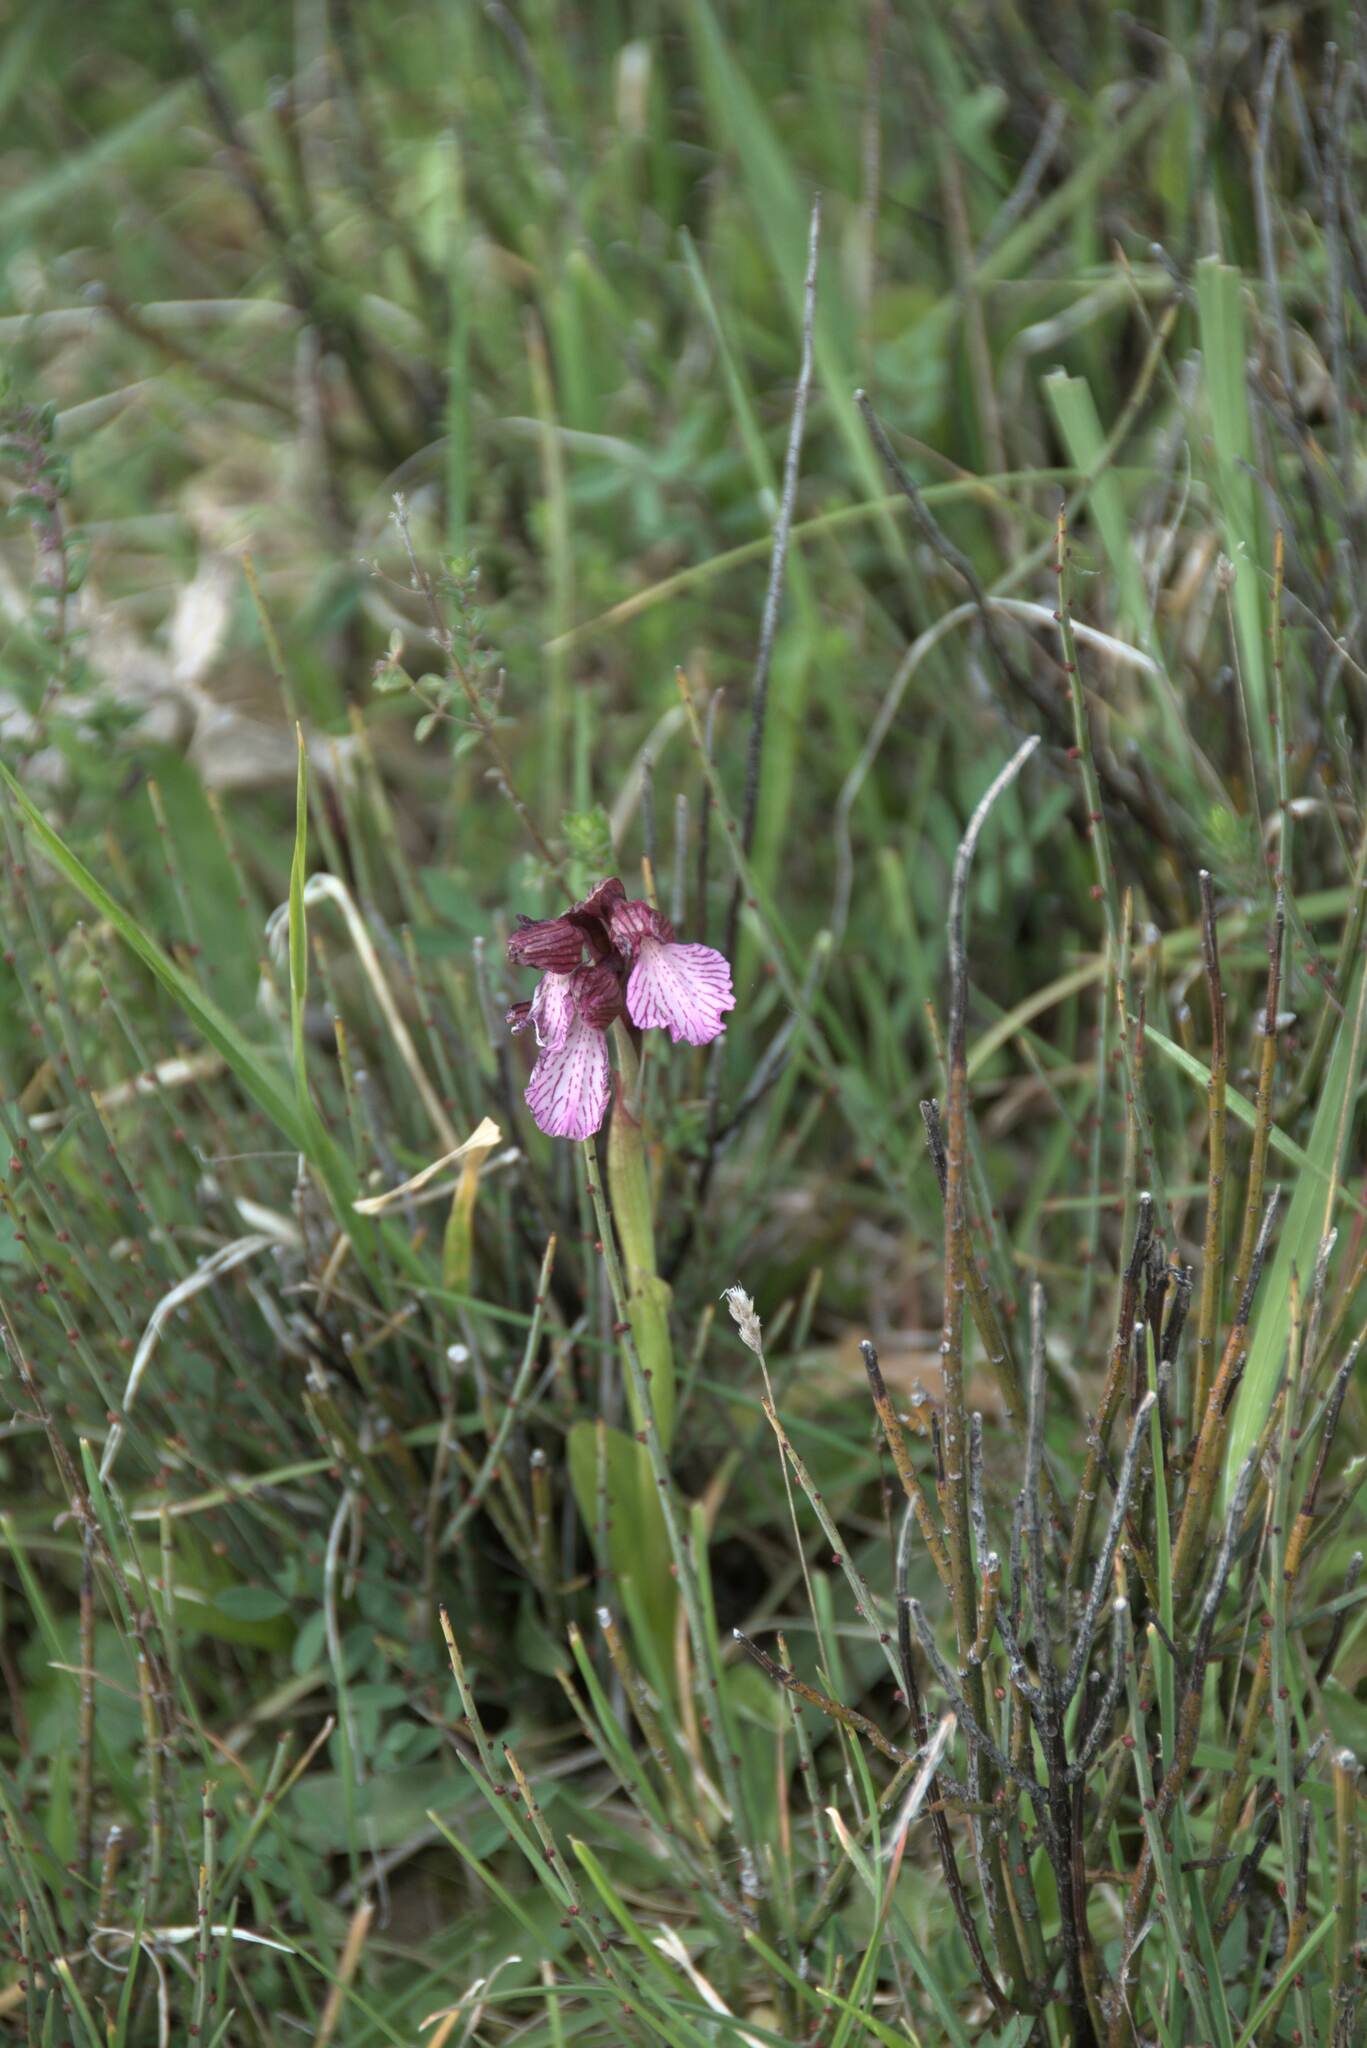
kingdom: Plantae
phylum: Tracheophyta
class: Liliopsida
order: Asparagales
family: Orchidaceae
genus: Anacamptis
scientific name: Anacamptis papilionacea
